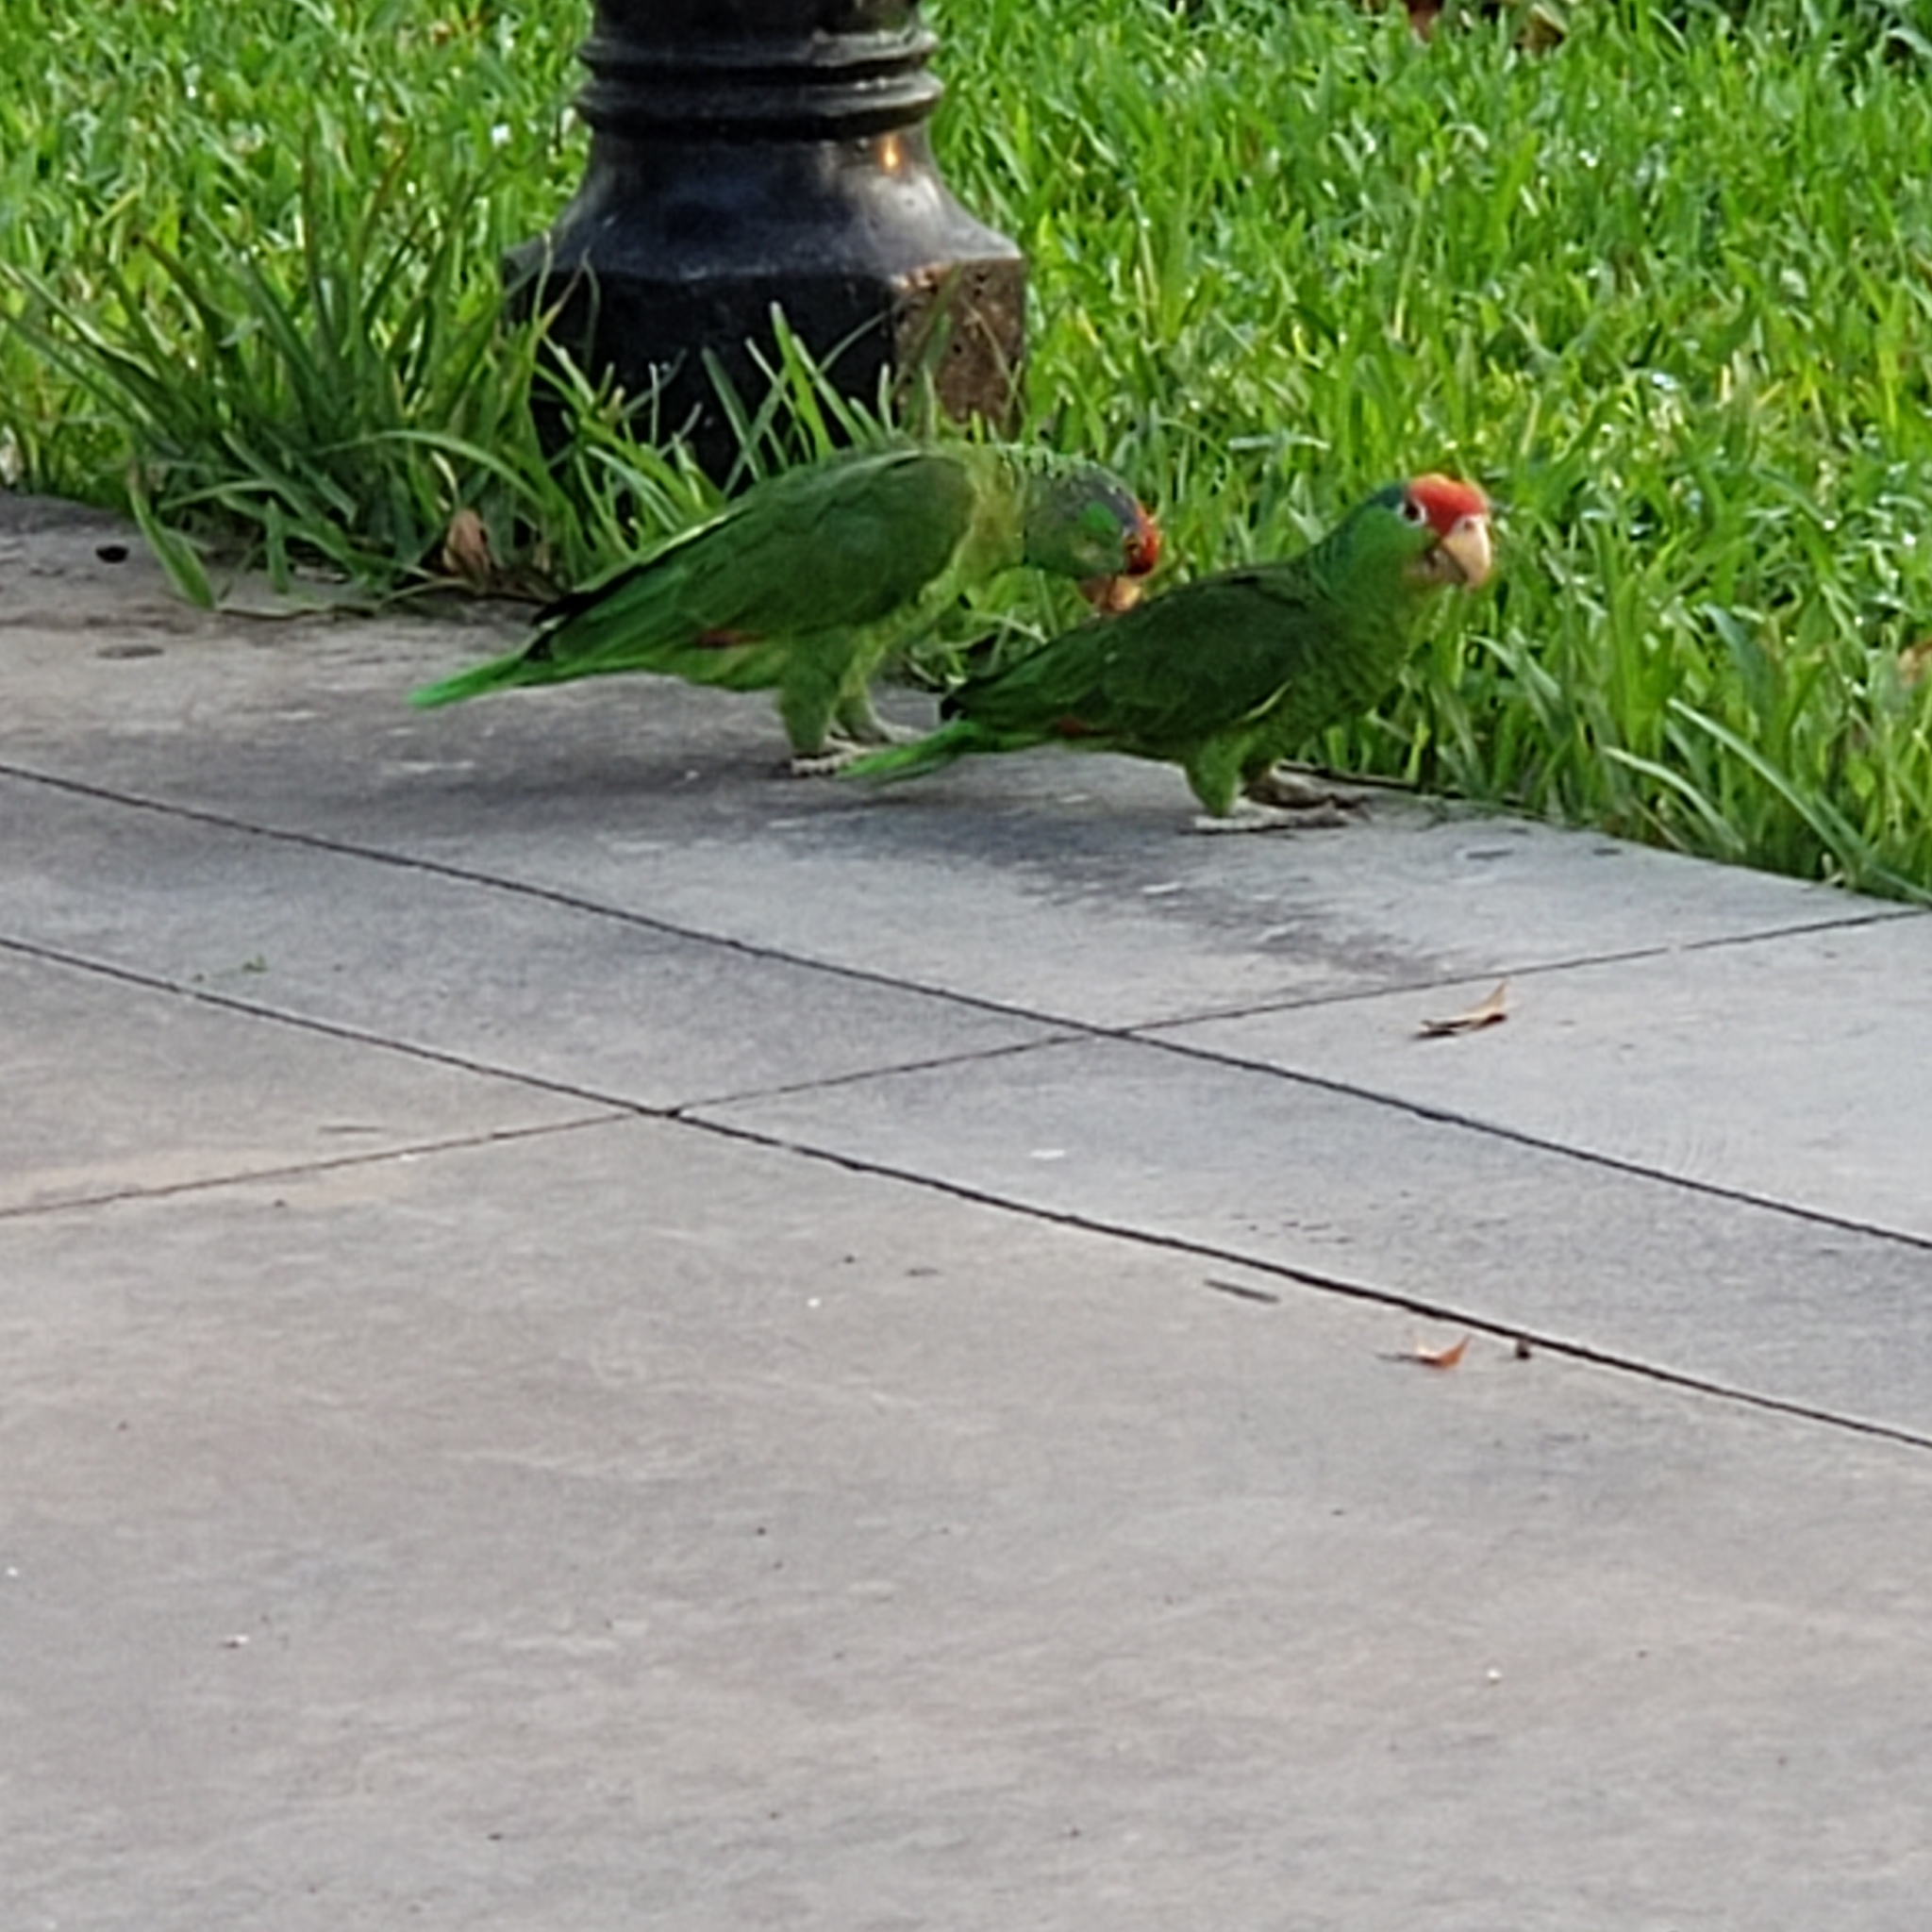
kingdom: Animalia
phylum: Chordata
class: Aves
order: Psittaciformes
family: Psittacidae
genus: Amazona
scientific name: Amazona viridigenalis
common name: Red-crowned amazon
